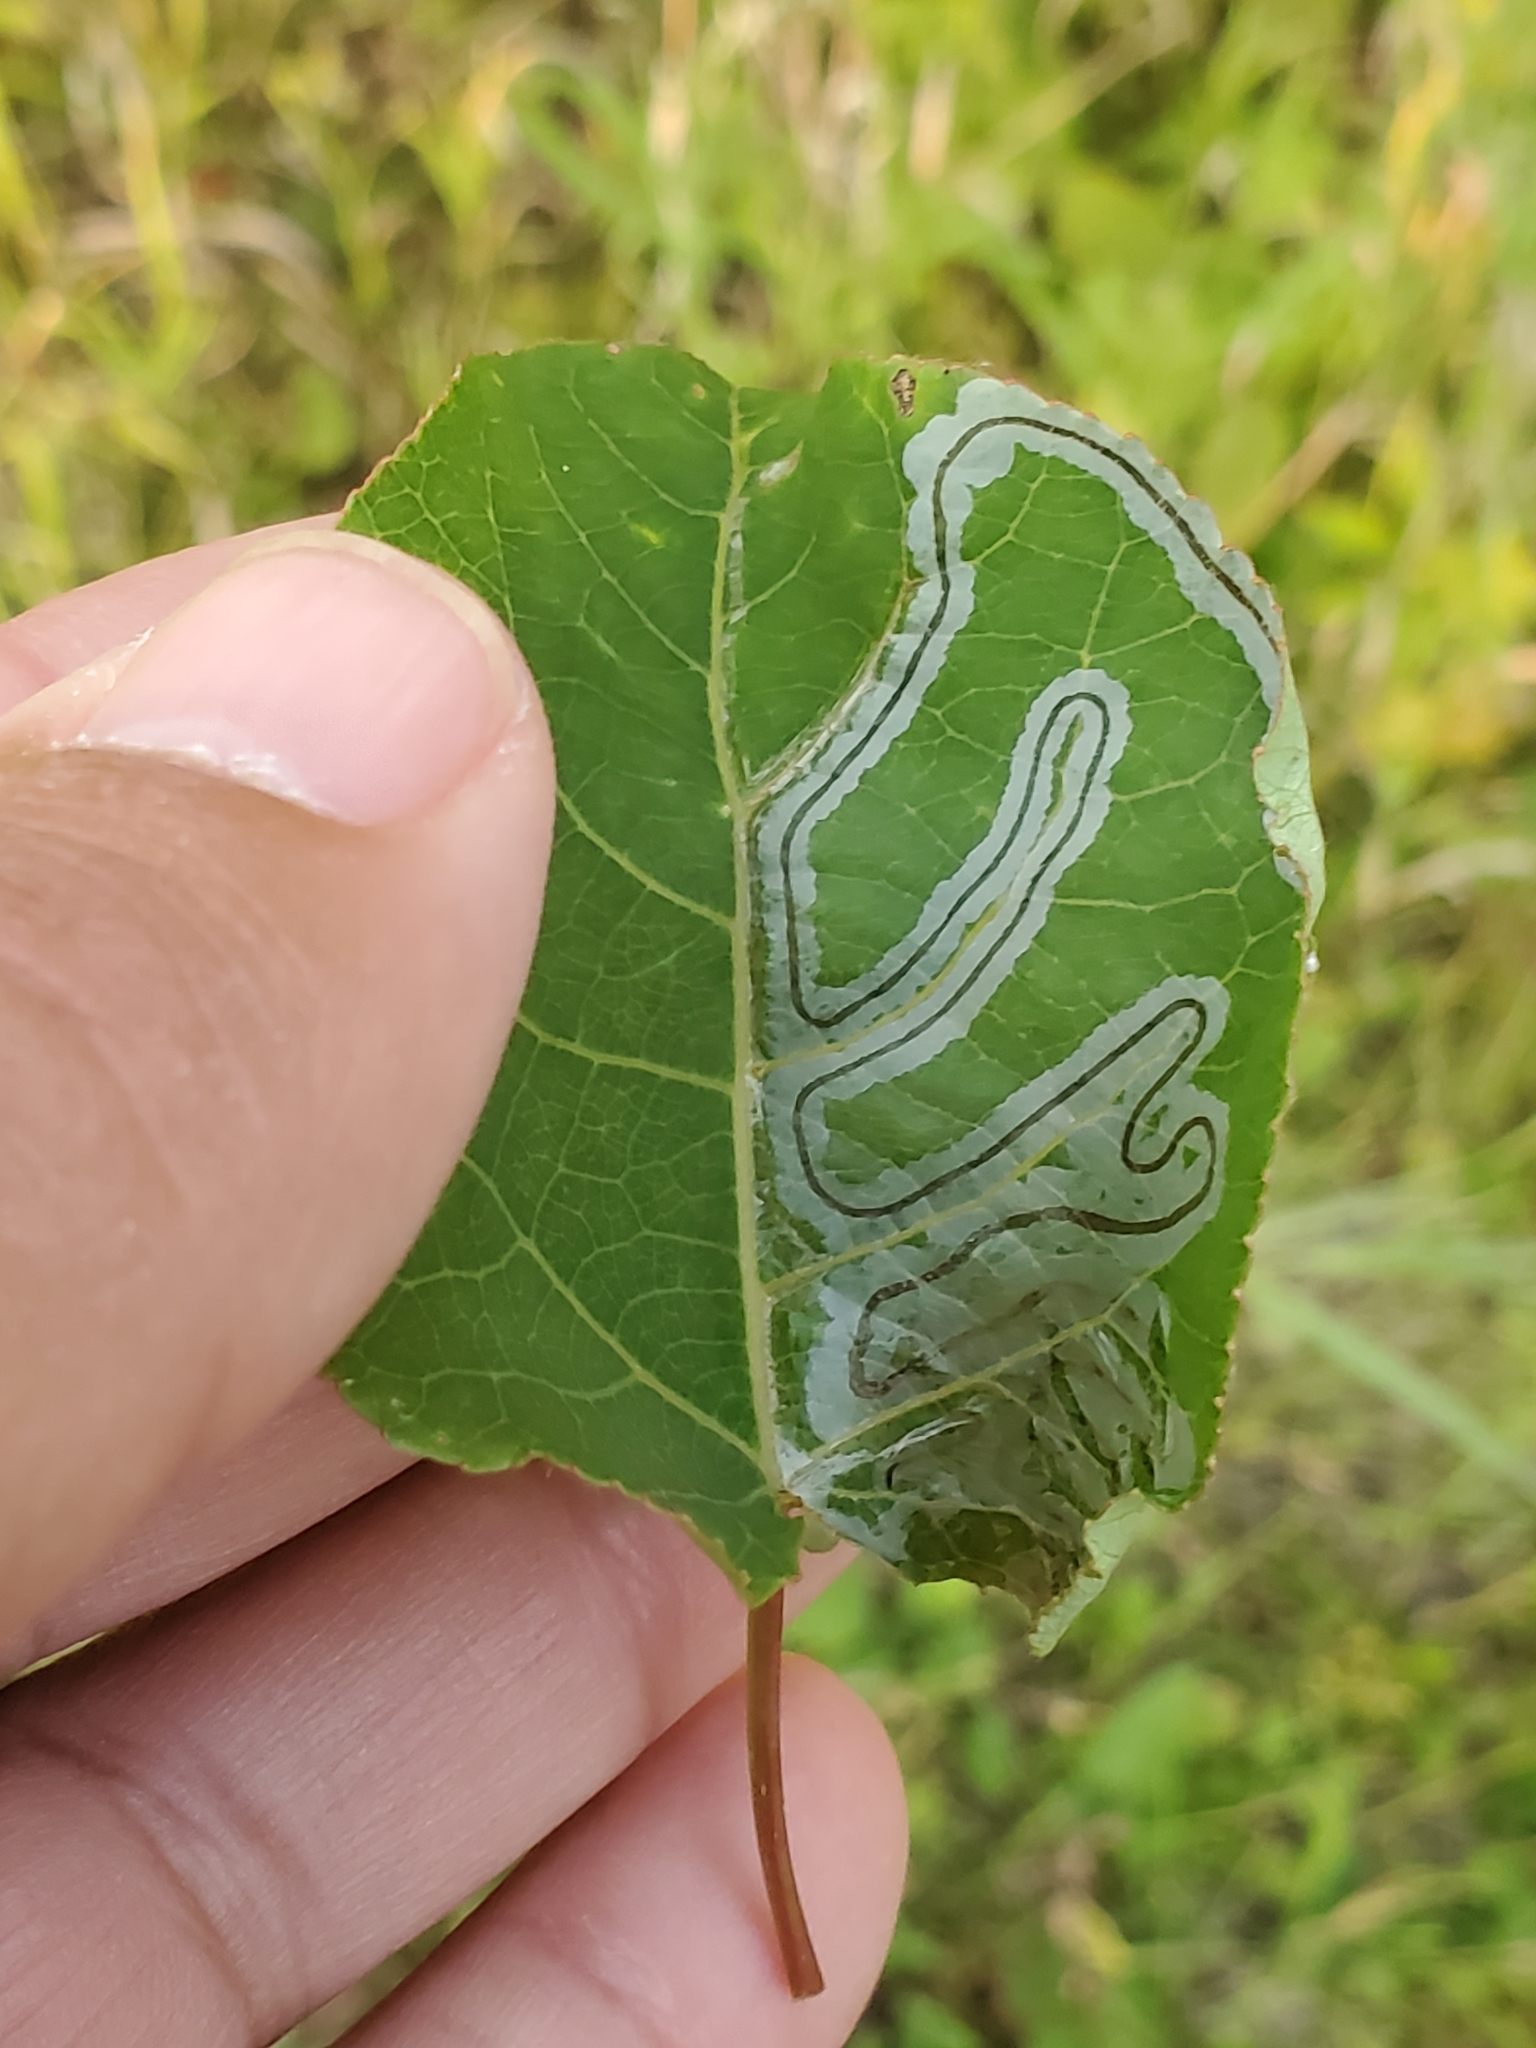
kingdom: Animalia
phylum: Arthropoda
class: Insecta
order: Lepidoptera
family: Gracillariidae
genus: Phyllocnistis
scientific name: Phyllocnistis populiella
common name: Aspen serpentine leafminer moth
